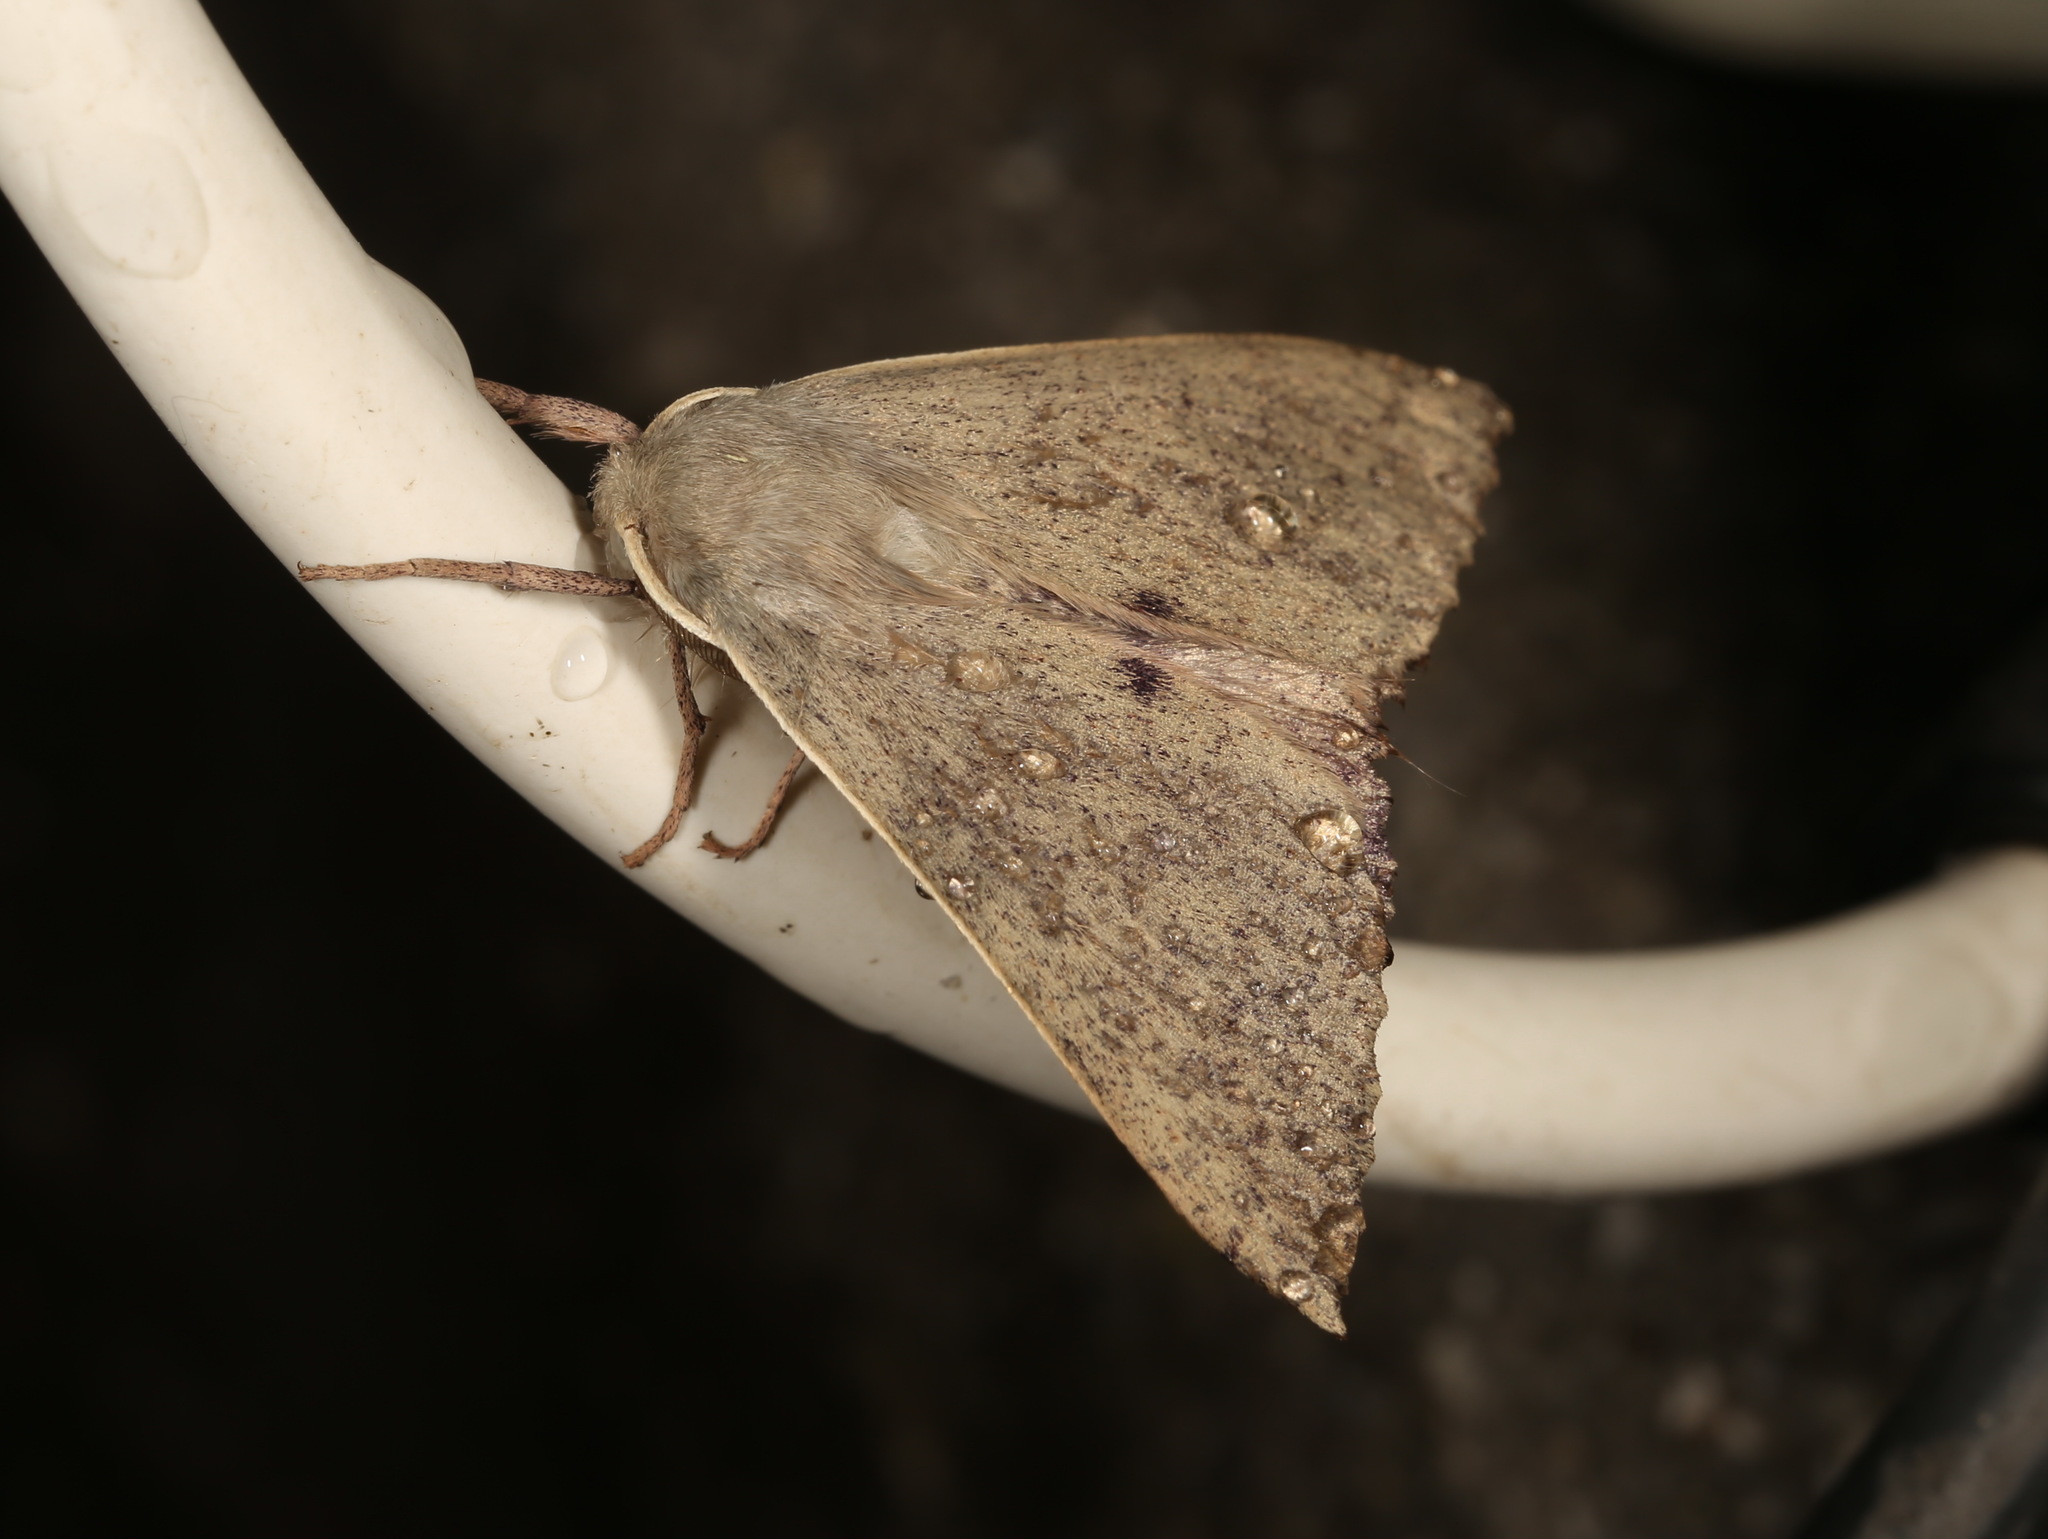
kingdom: Animalia
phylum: Arthropoda
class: Insecta
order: Lepidoptera
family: Geometridae
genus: Arhodia
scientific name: Arhodia lasiocamparia
